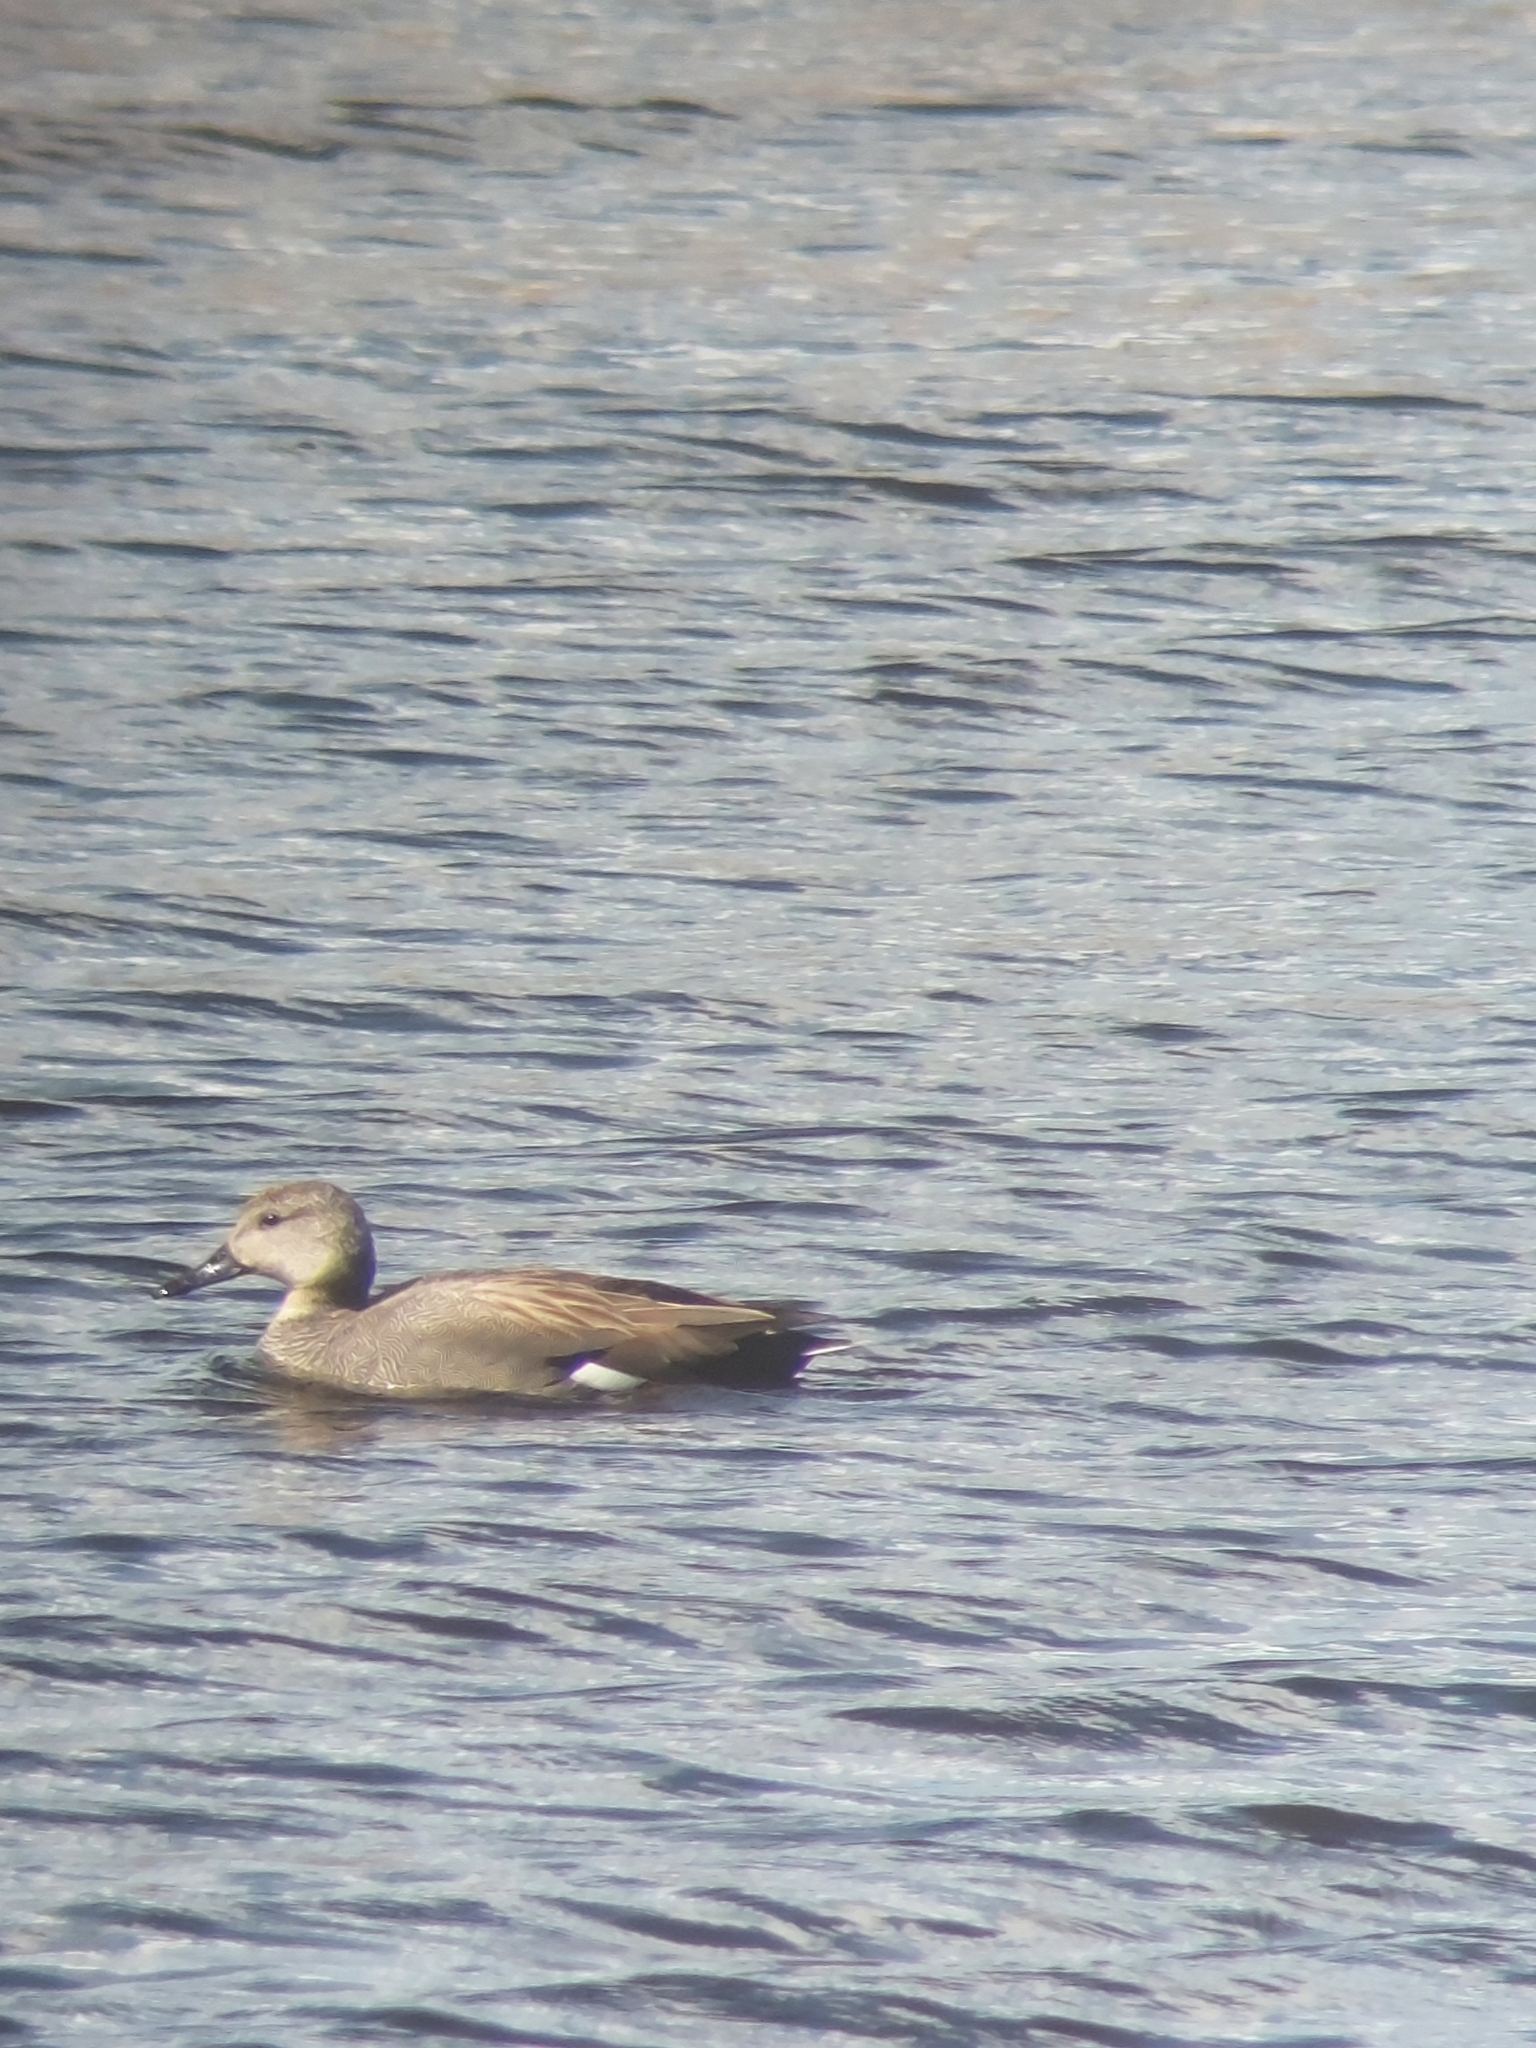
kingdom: Animalia
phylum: Chordata
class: Aves
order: Anseriformes
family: Anatidae
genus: Mareca
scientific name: Mareca strepera
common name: Gadwall
